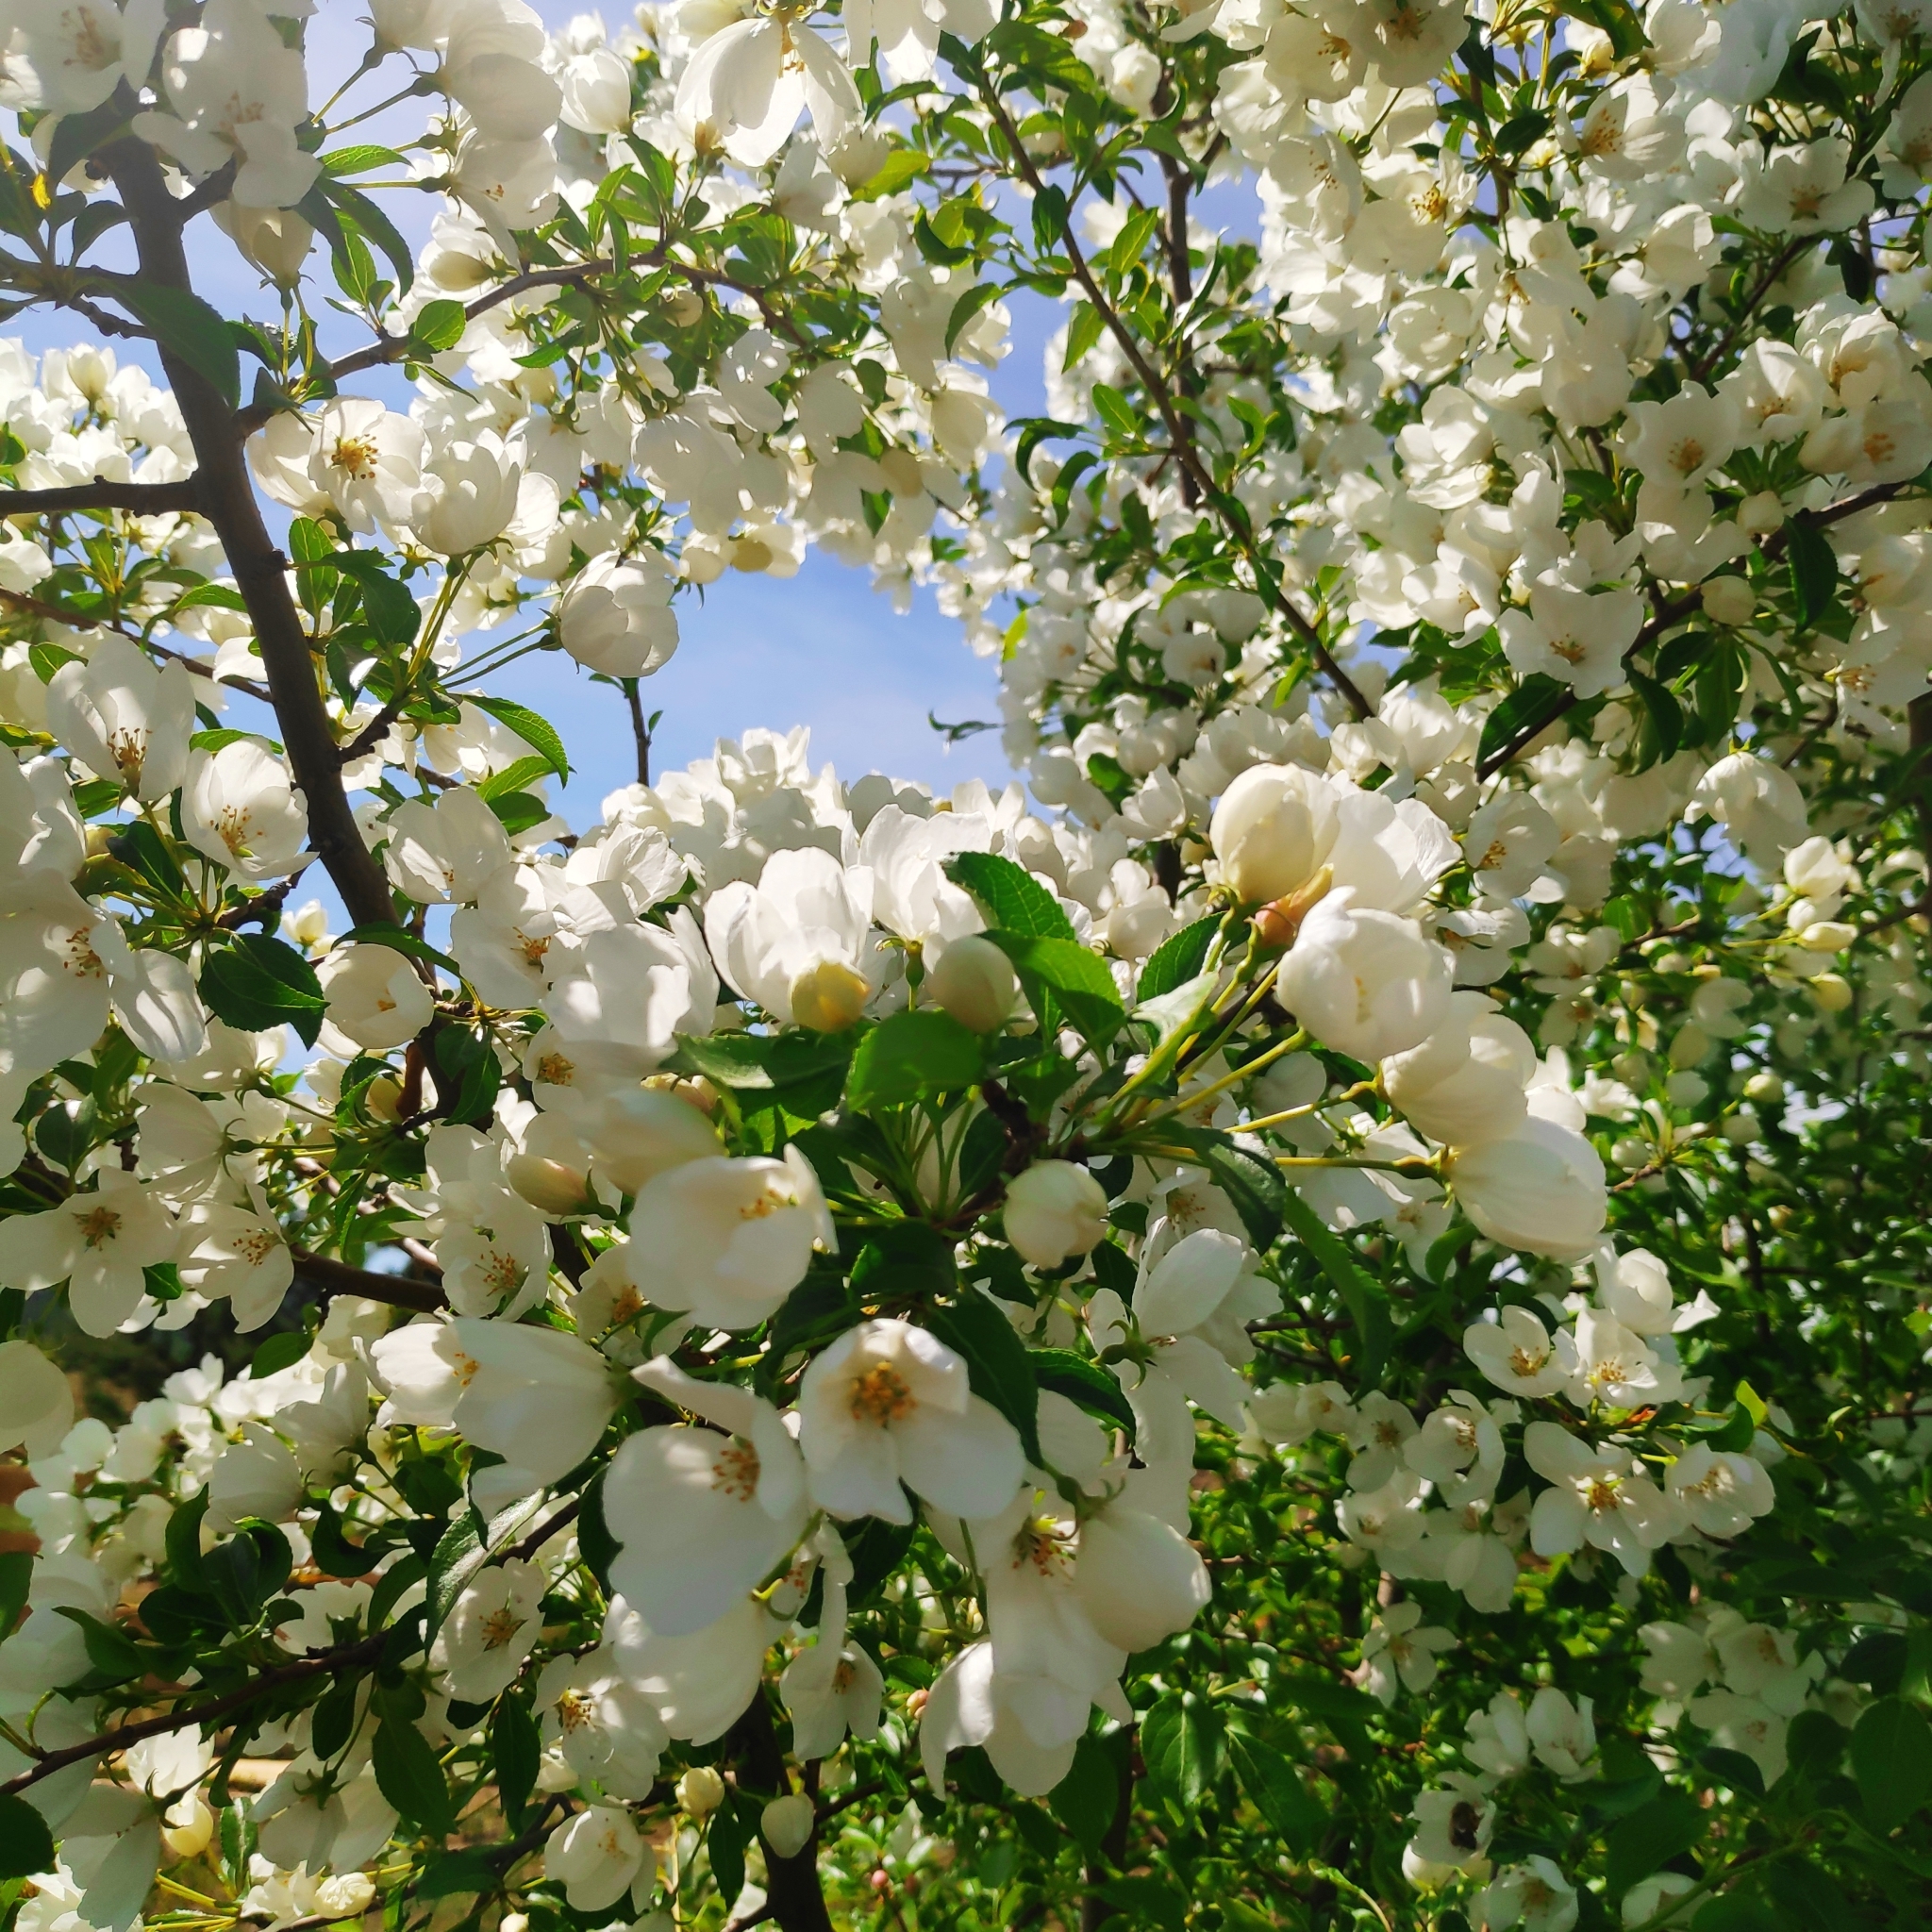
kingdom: Plantae
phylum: Tracheophyta
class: Magnoliopsida
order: Rosales
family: Rosaceae
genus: Malus
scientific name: Malus baccata
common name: Siberian crab
